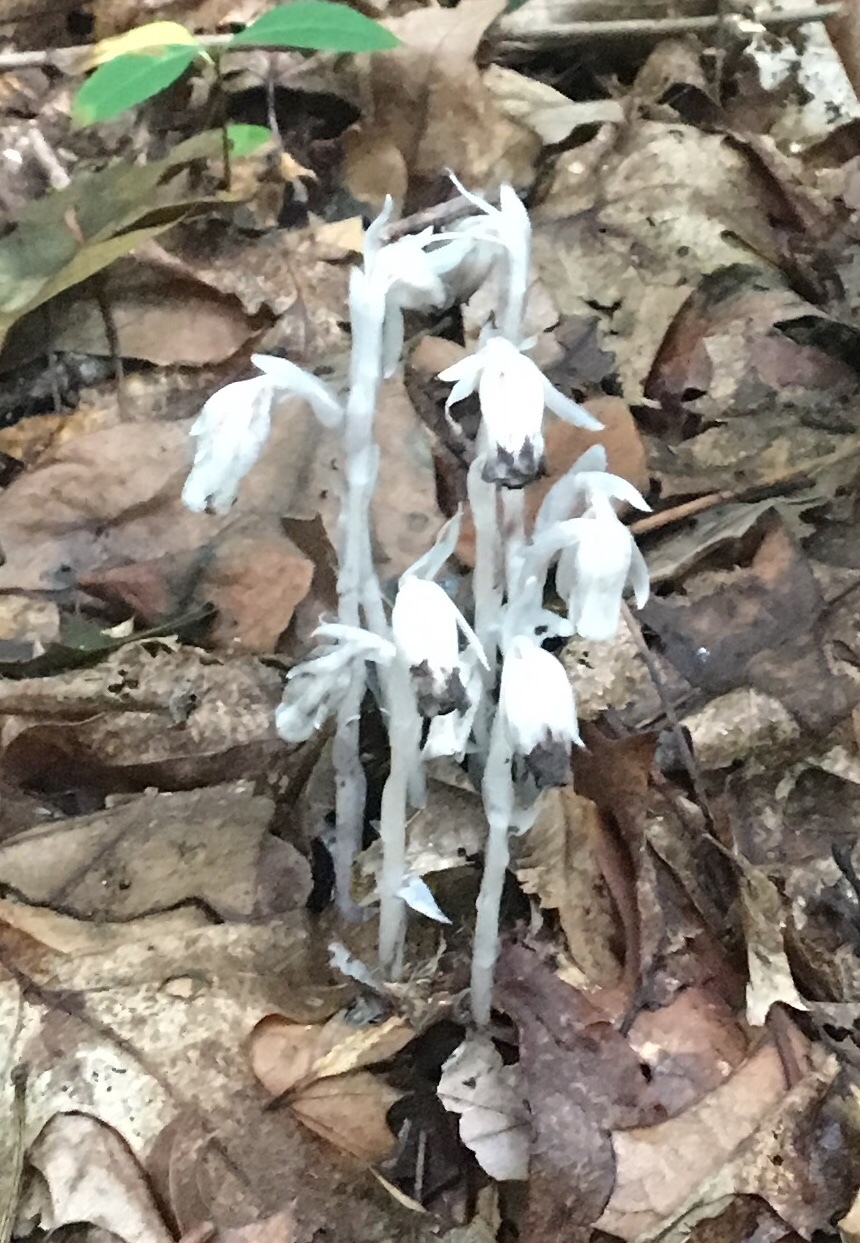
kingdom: Plantae
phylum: Tracheophyta
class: Magnoliopsida
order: Ericales
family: Ericaceae
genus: Monotropa
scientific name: Monotropa uniflora
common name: Convulsion root
